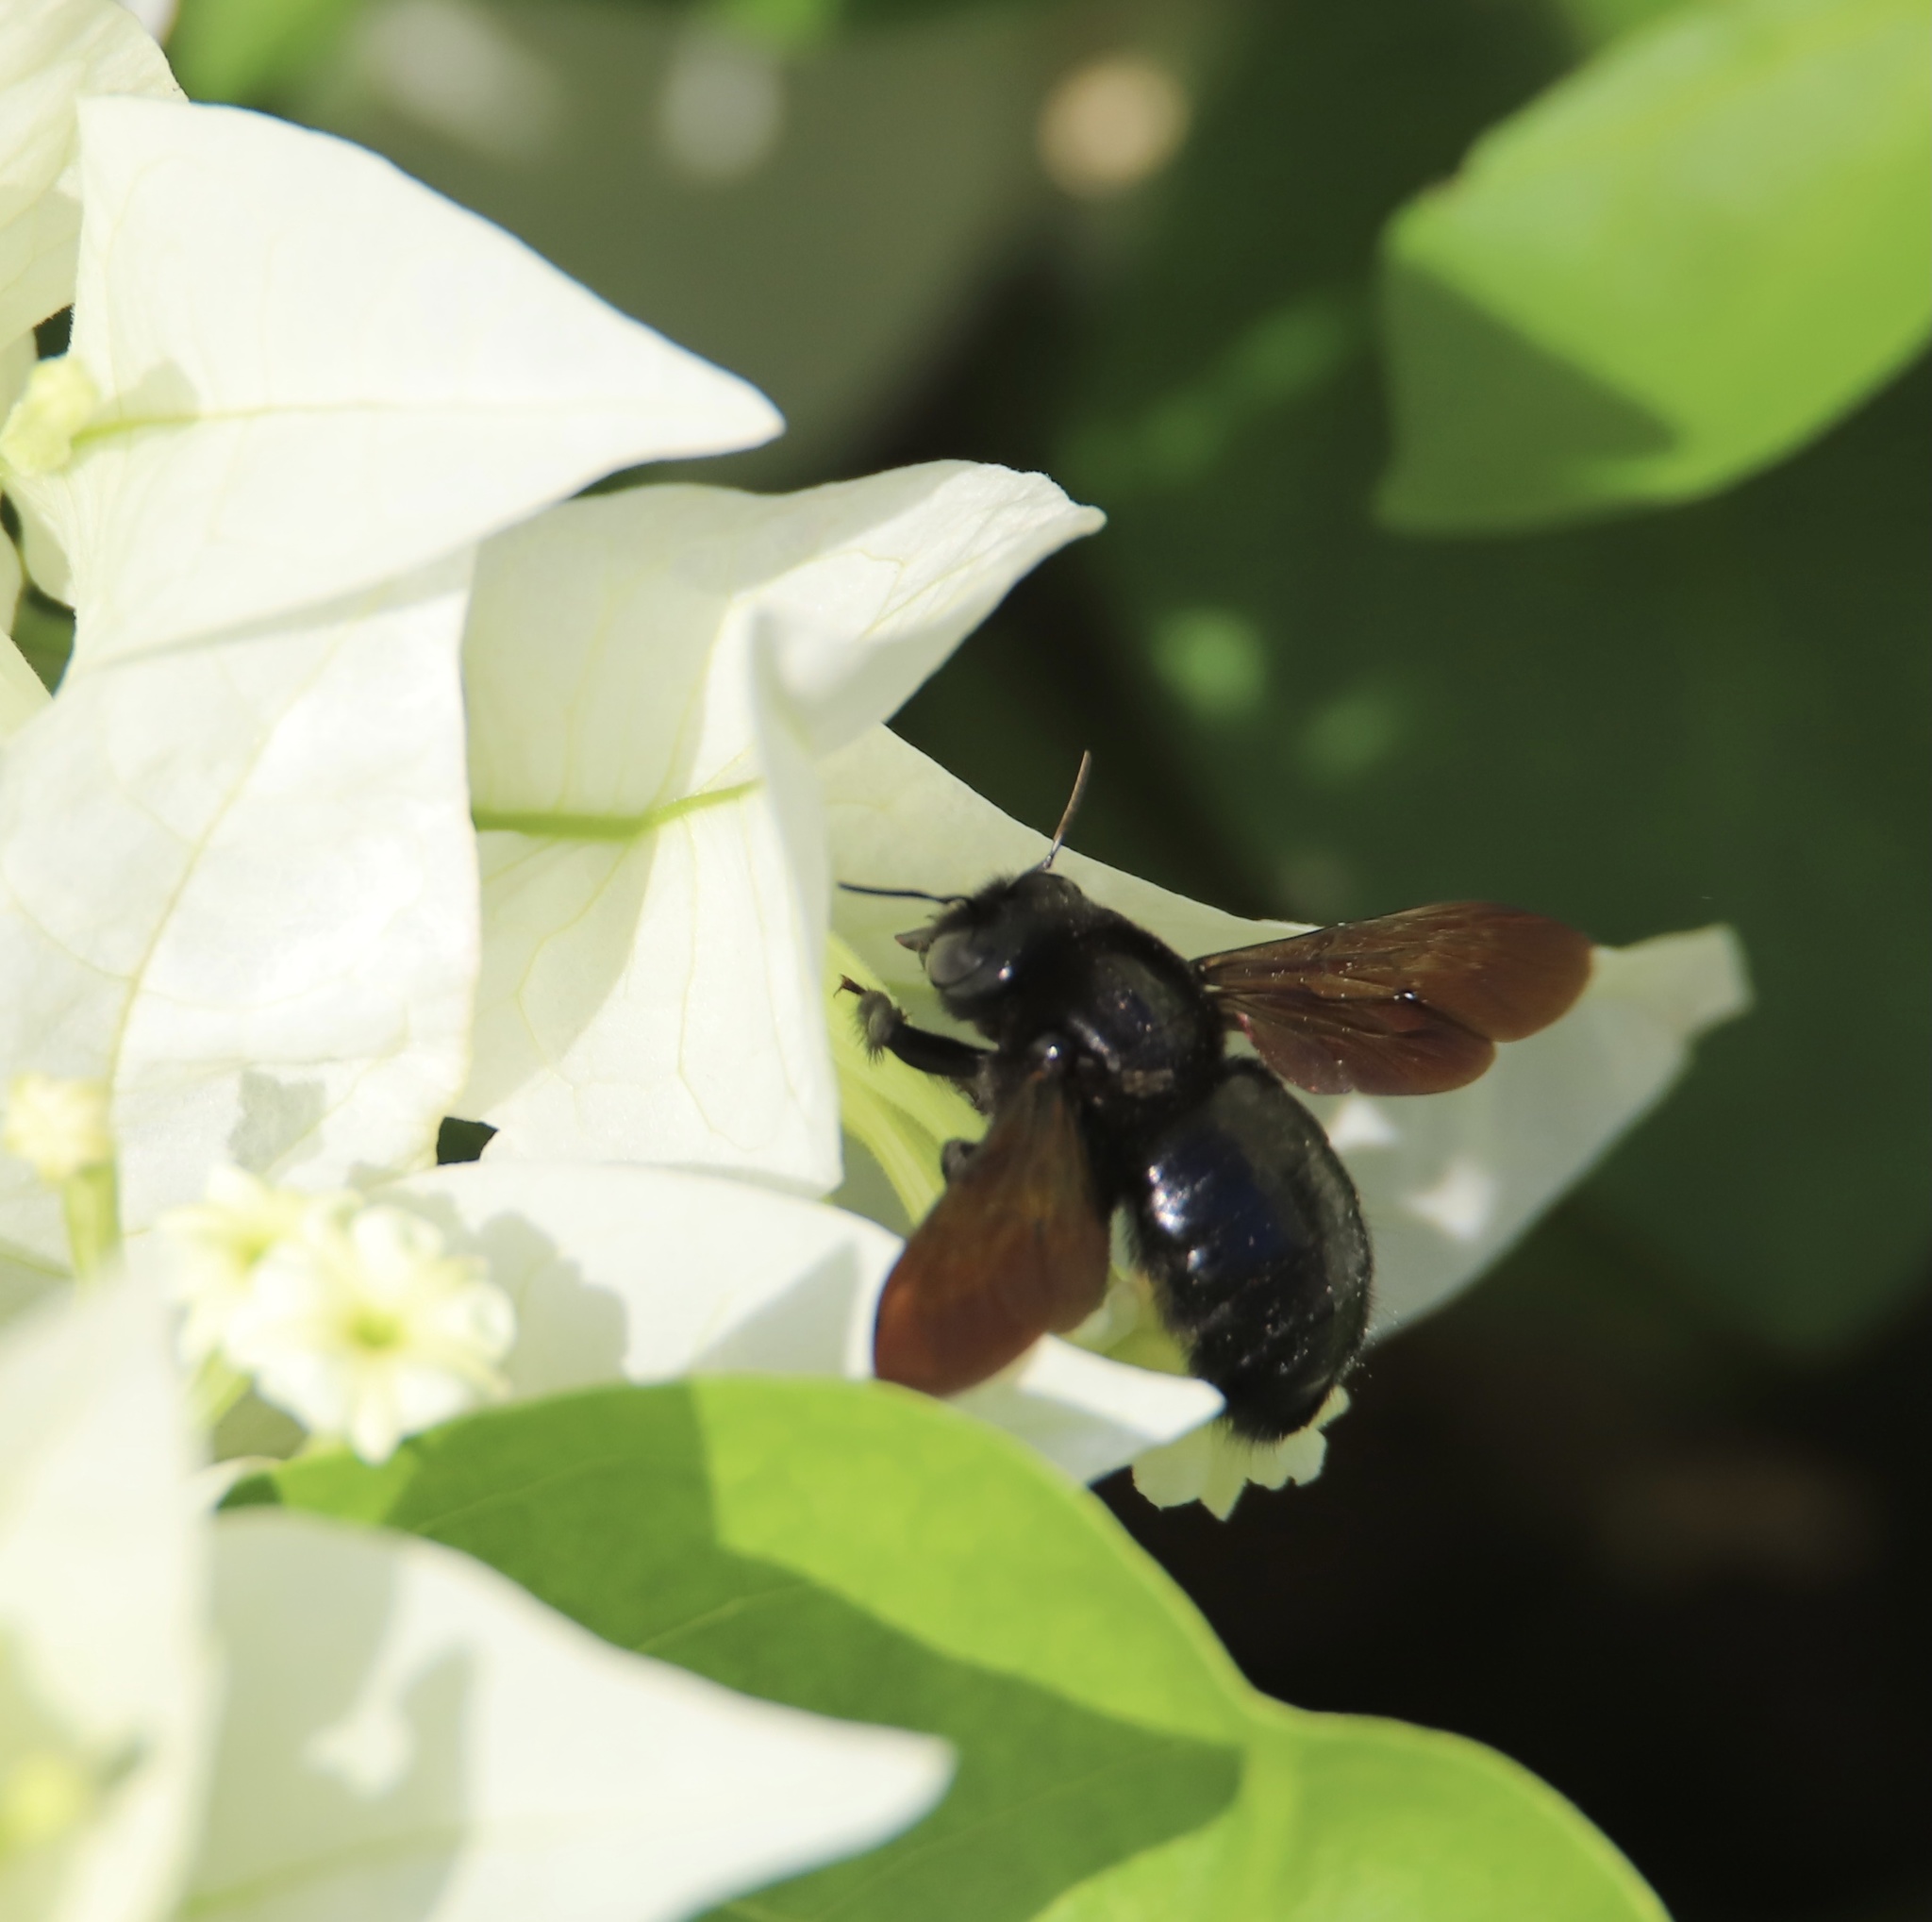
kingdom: Animalia
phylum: Arthropoda
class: Insecta
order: Hymenoptera
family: Apidae
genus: Xylocopa
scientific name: Xylocopa mordax
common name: Antillean carpenter bee
